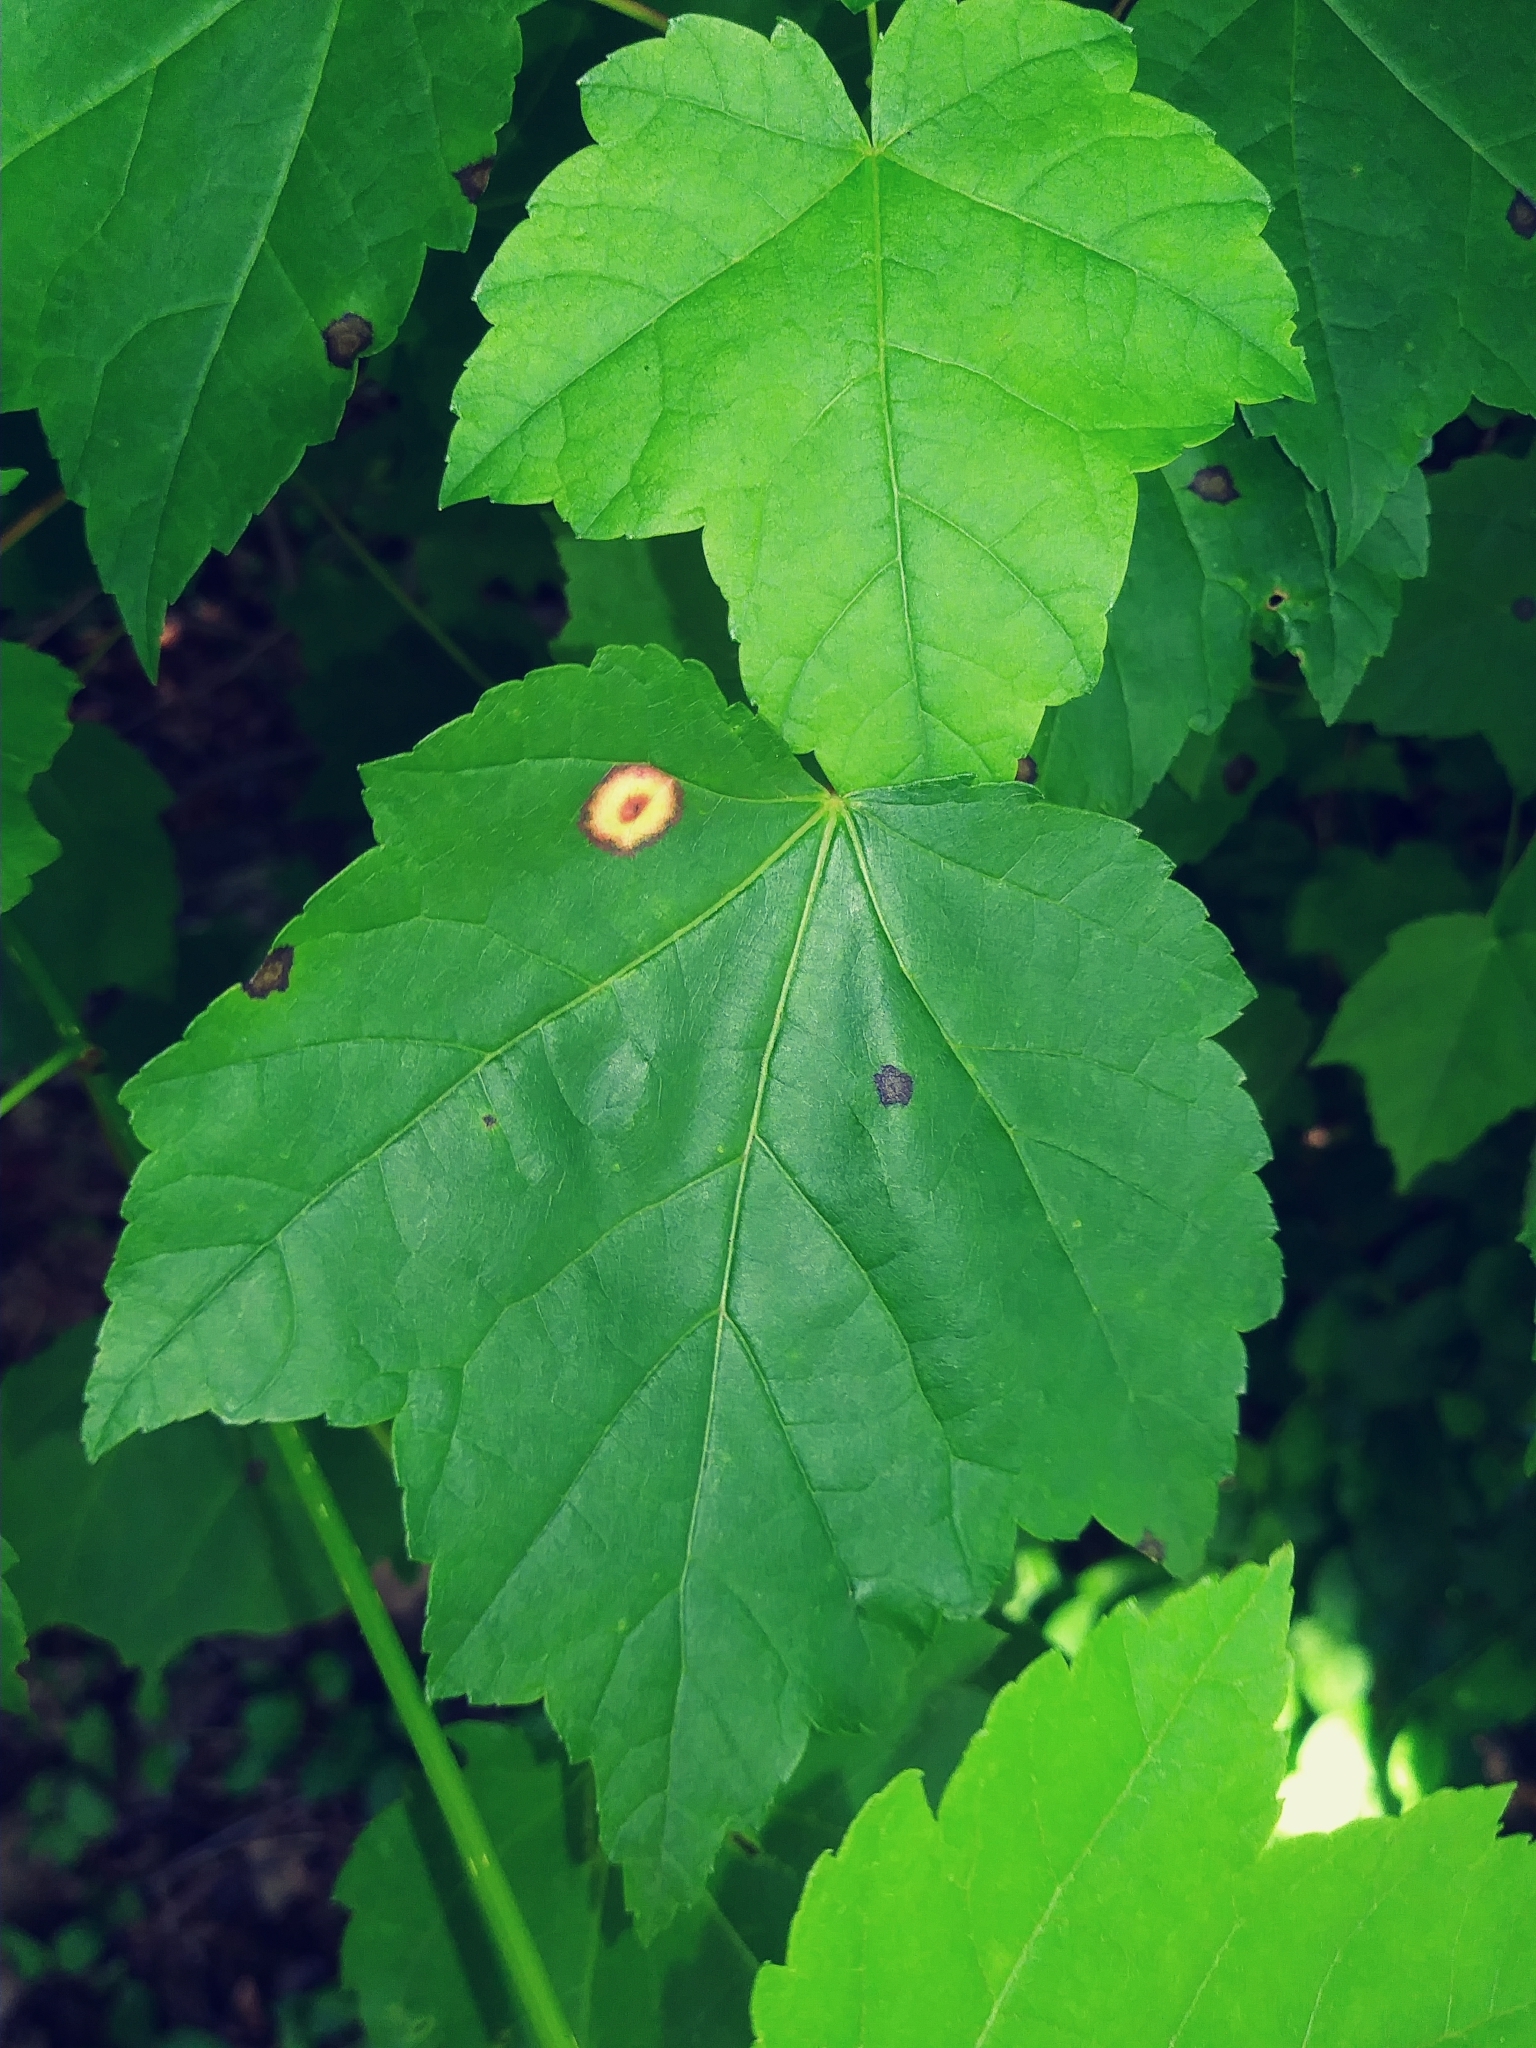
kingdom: Animalia
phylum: Arthropoda
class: Insecta
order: Diptera
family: Cecidomyiidae
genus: Acericecis
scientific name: Acericecis ocellaris
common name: Ocellate gall midge
